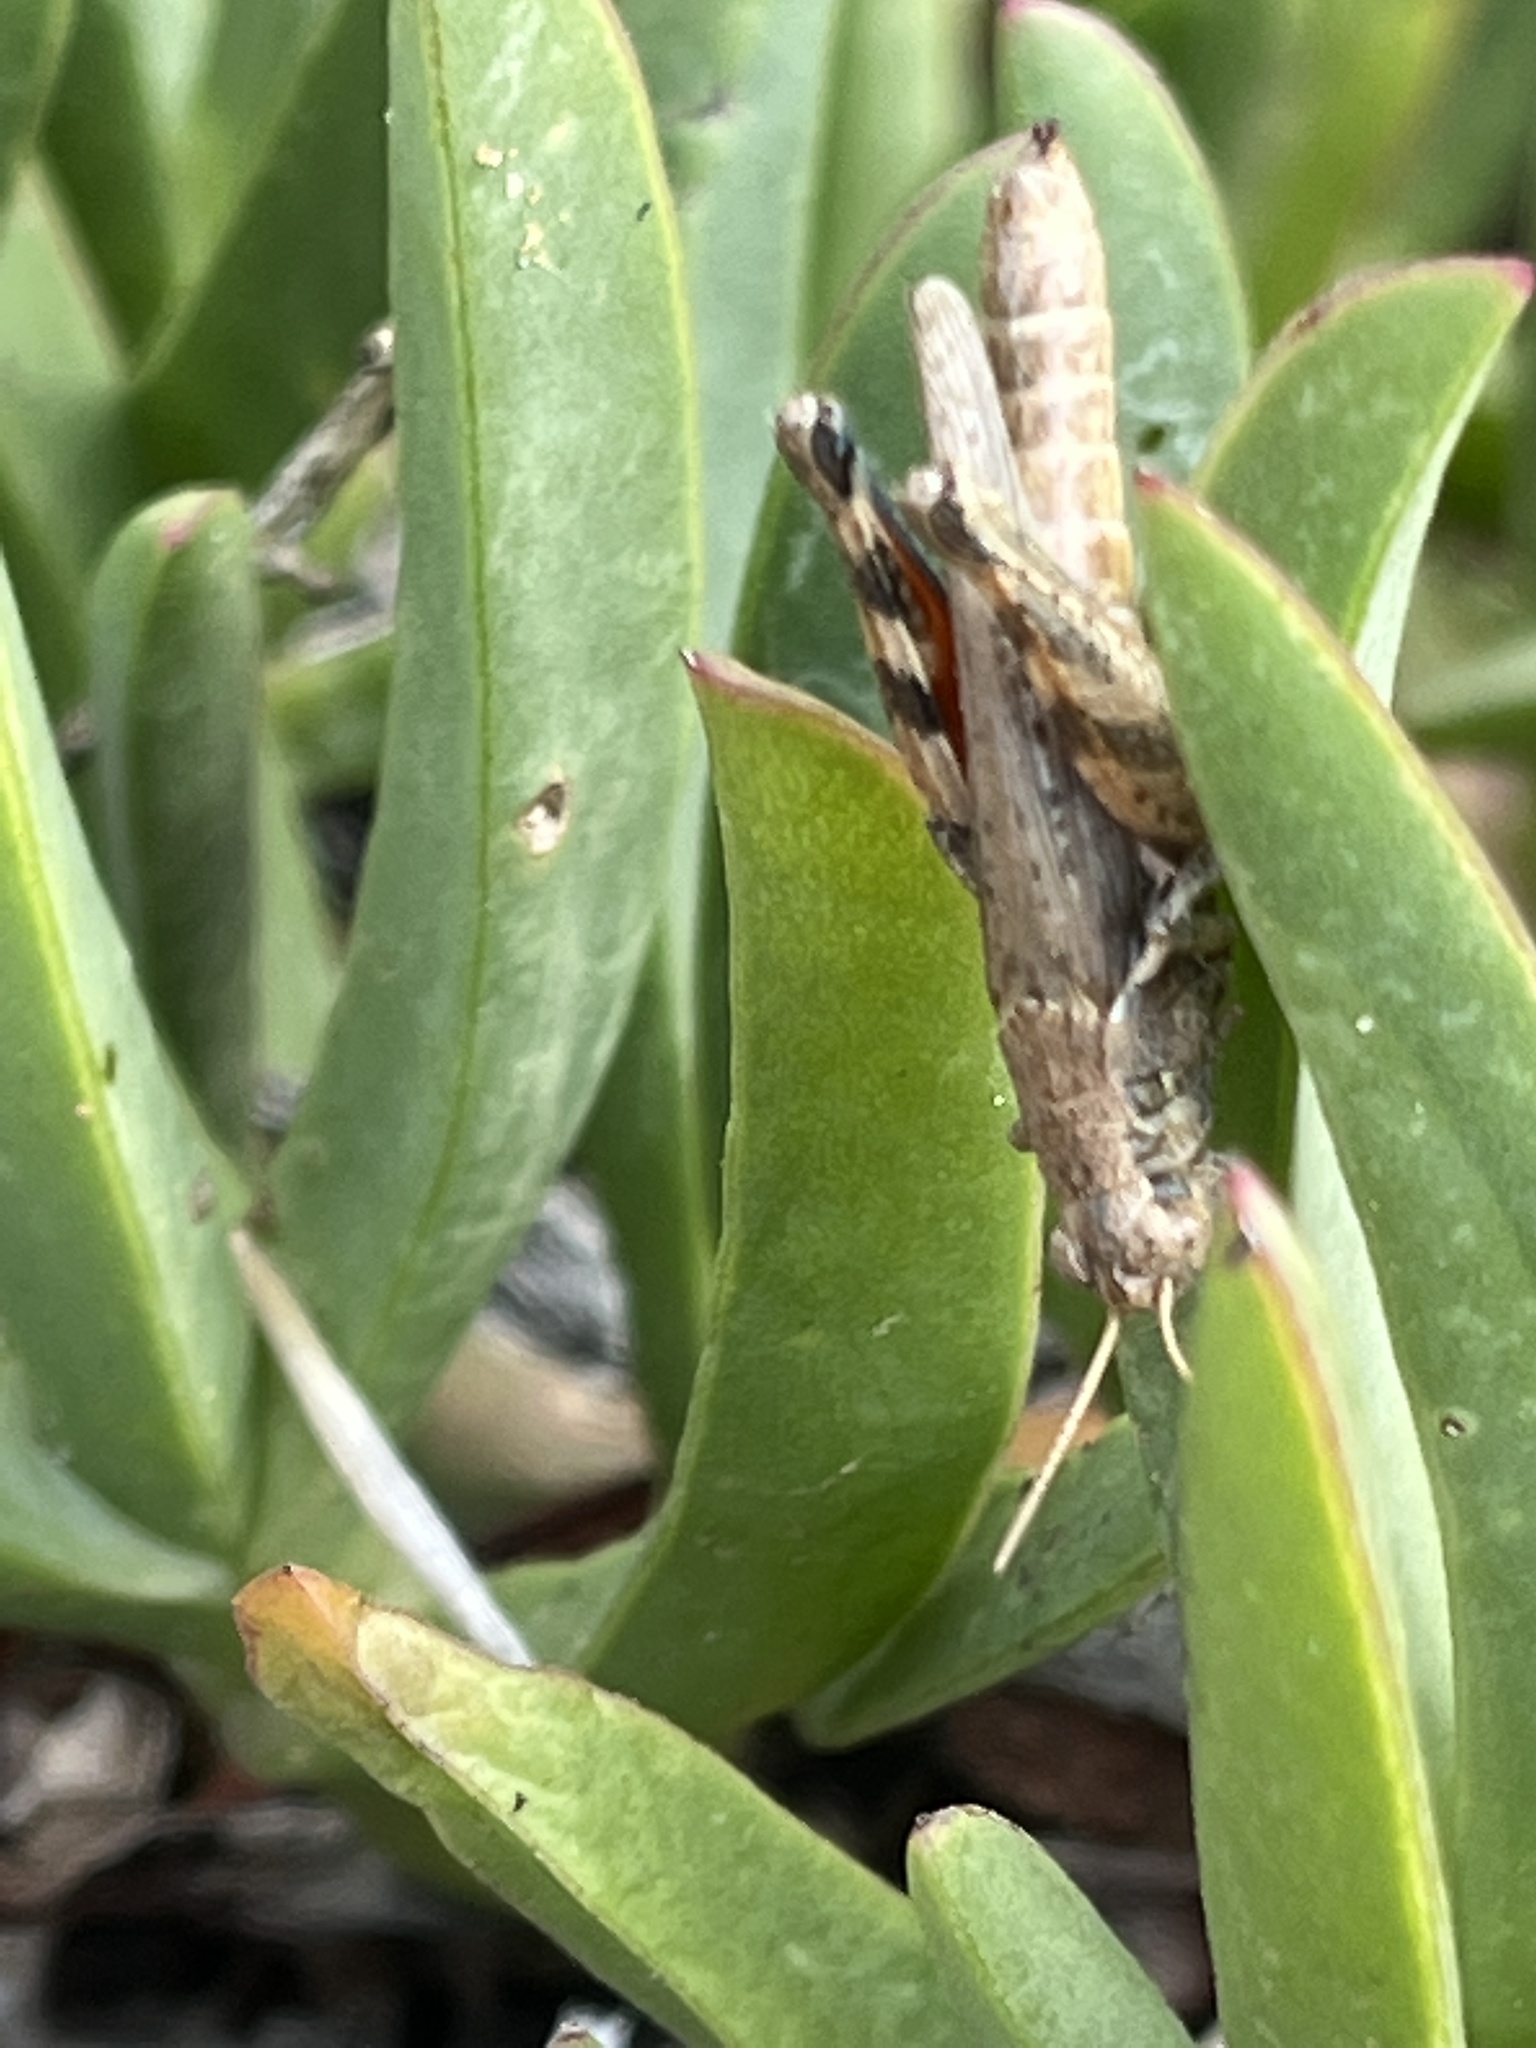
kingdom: Animalia
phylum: Arthropoda
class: Insecta
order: Orthoptera
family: Acrididae
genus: Melanoplus
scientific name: Melanoplus cinereus
